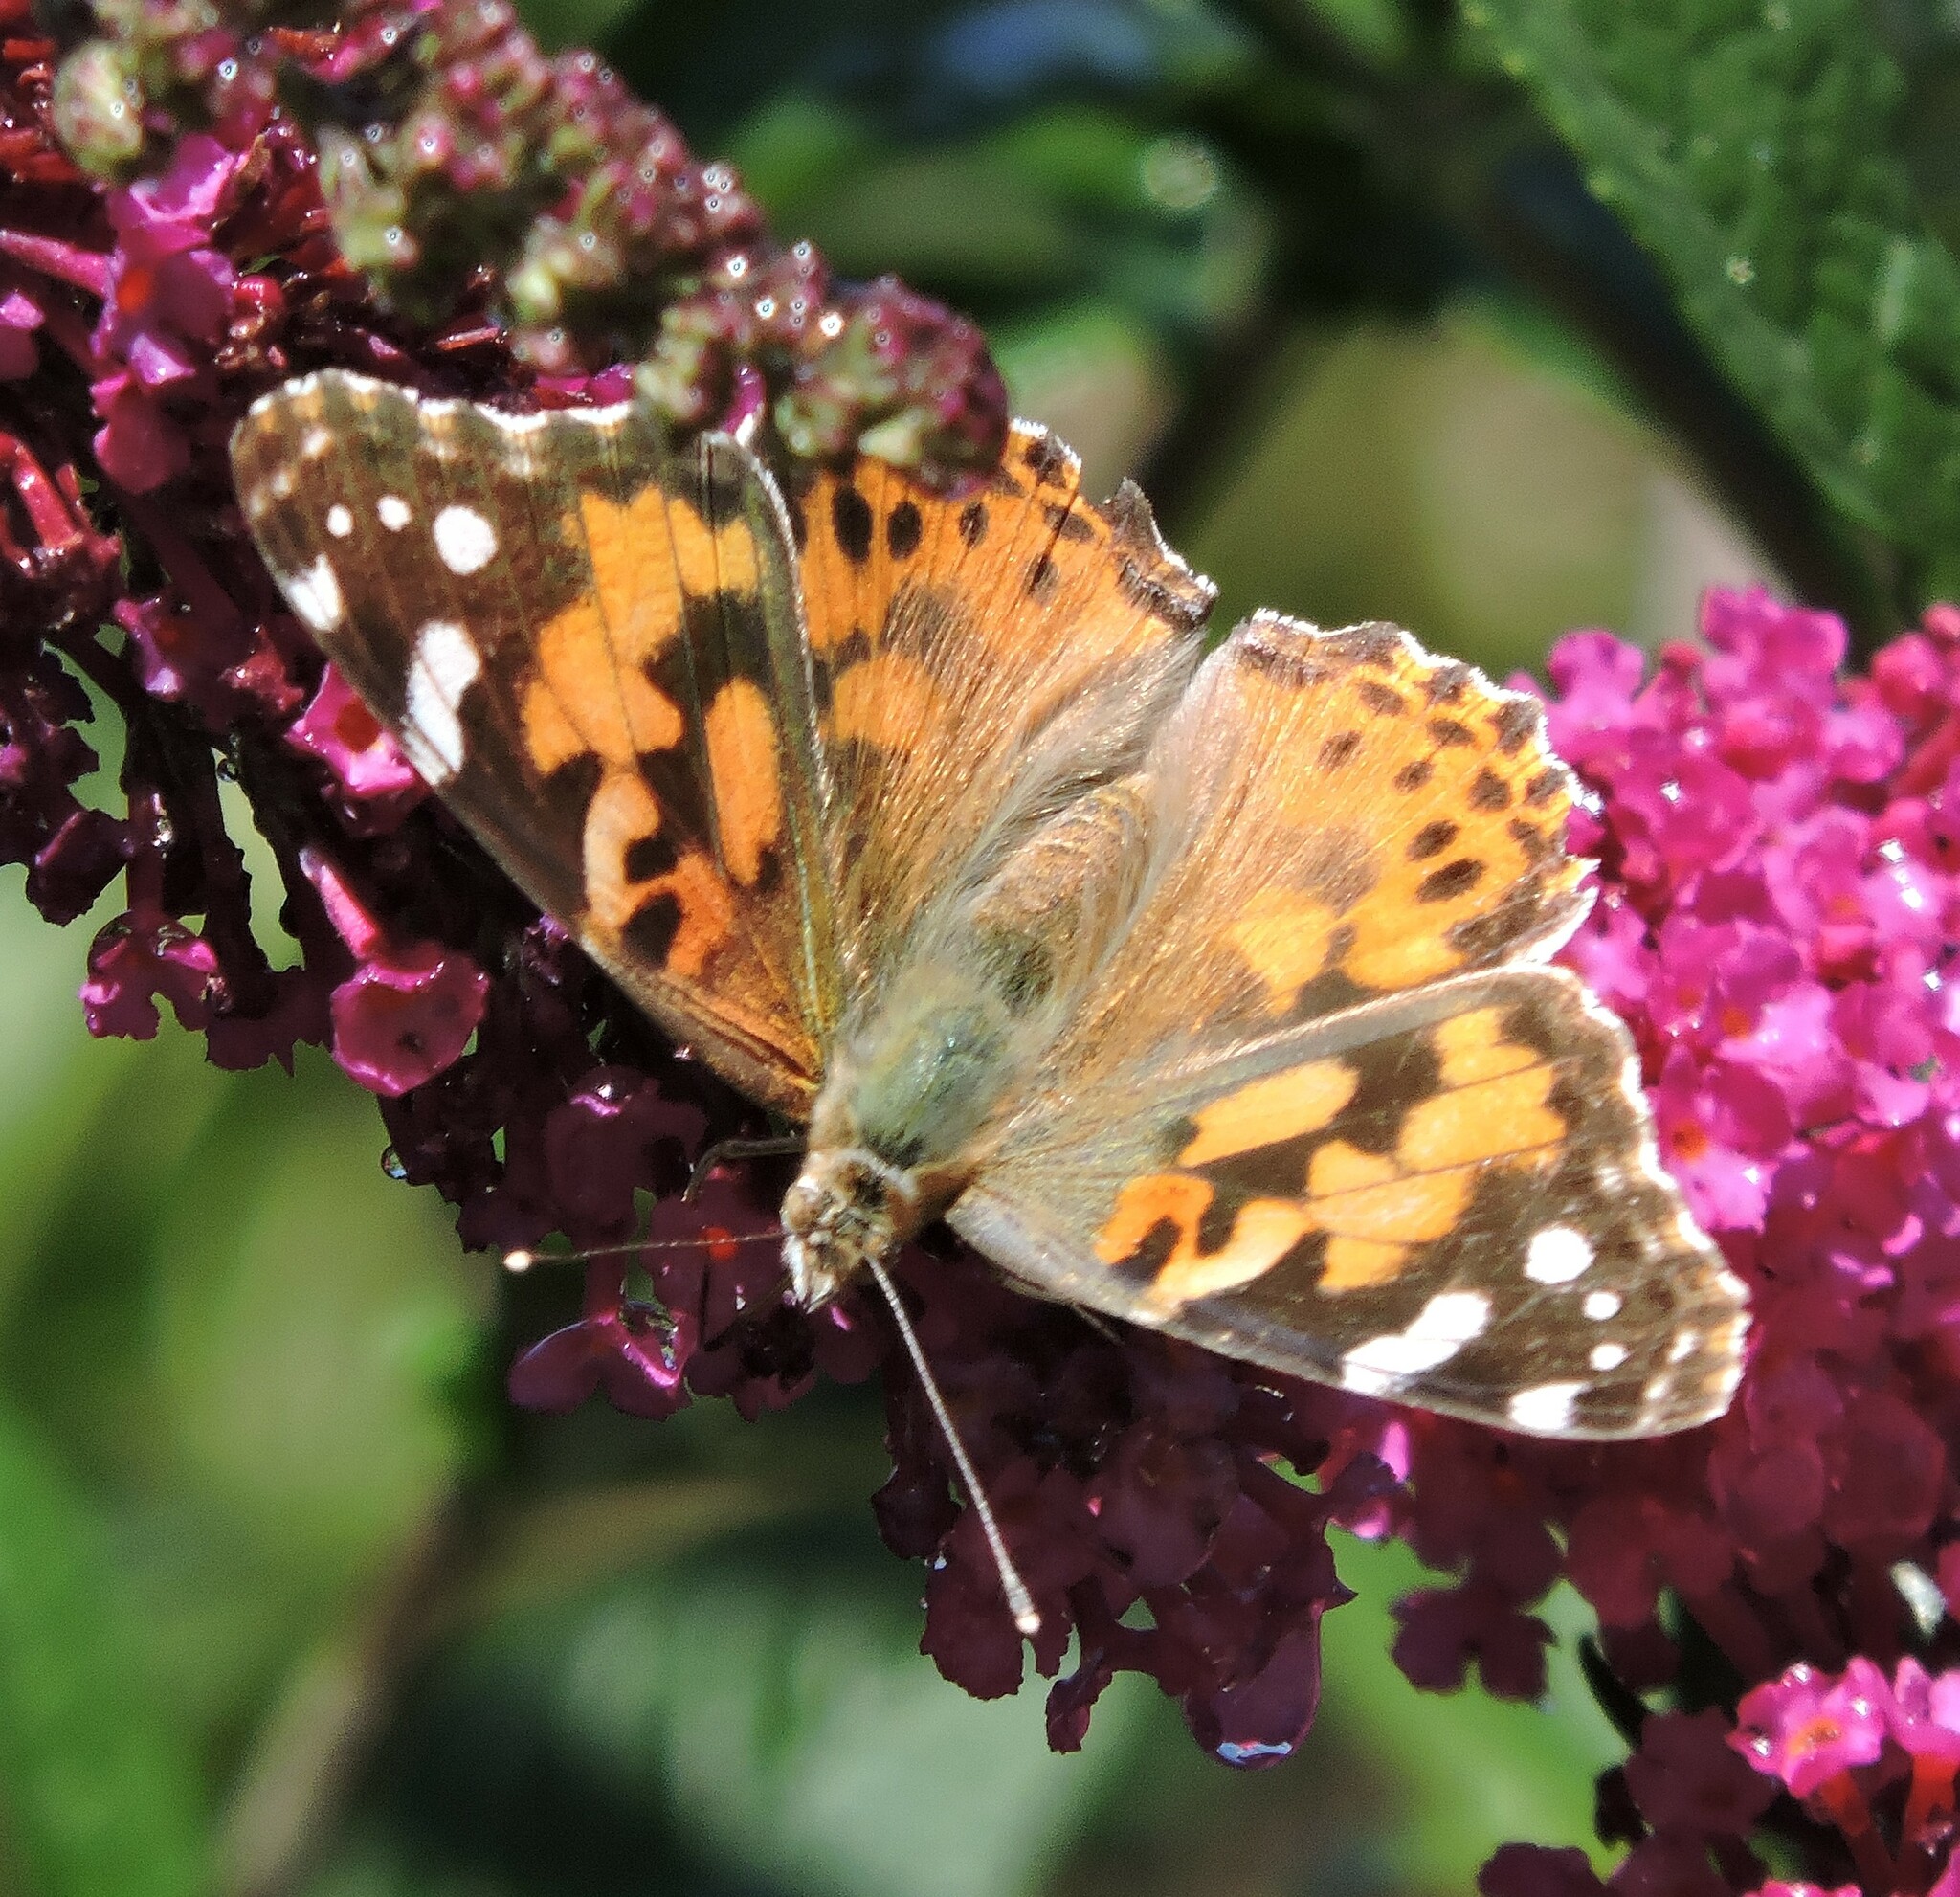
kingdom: Animalia
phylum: Arthropoda
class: Insecta
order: Lepidoptera
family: Nymphalidae
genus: Vanessa
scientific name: Vanessa cardui
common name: Painted lady
